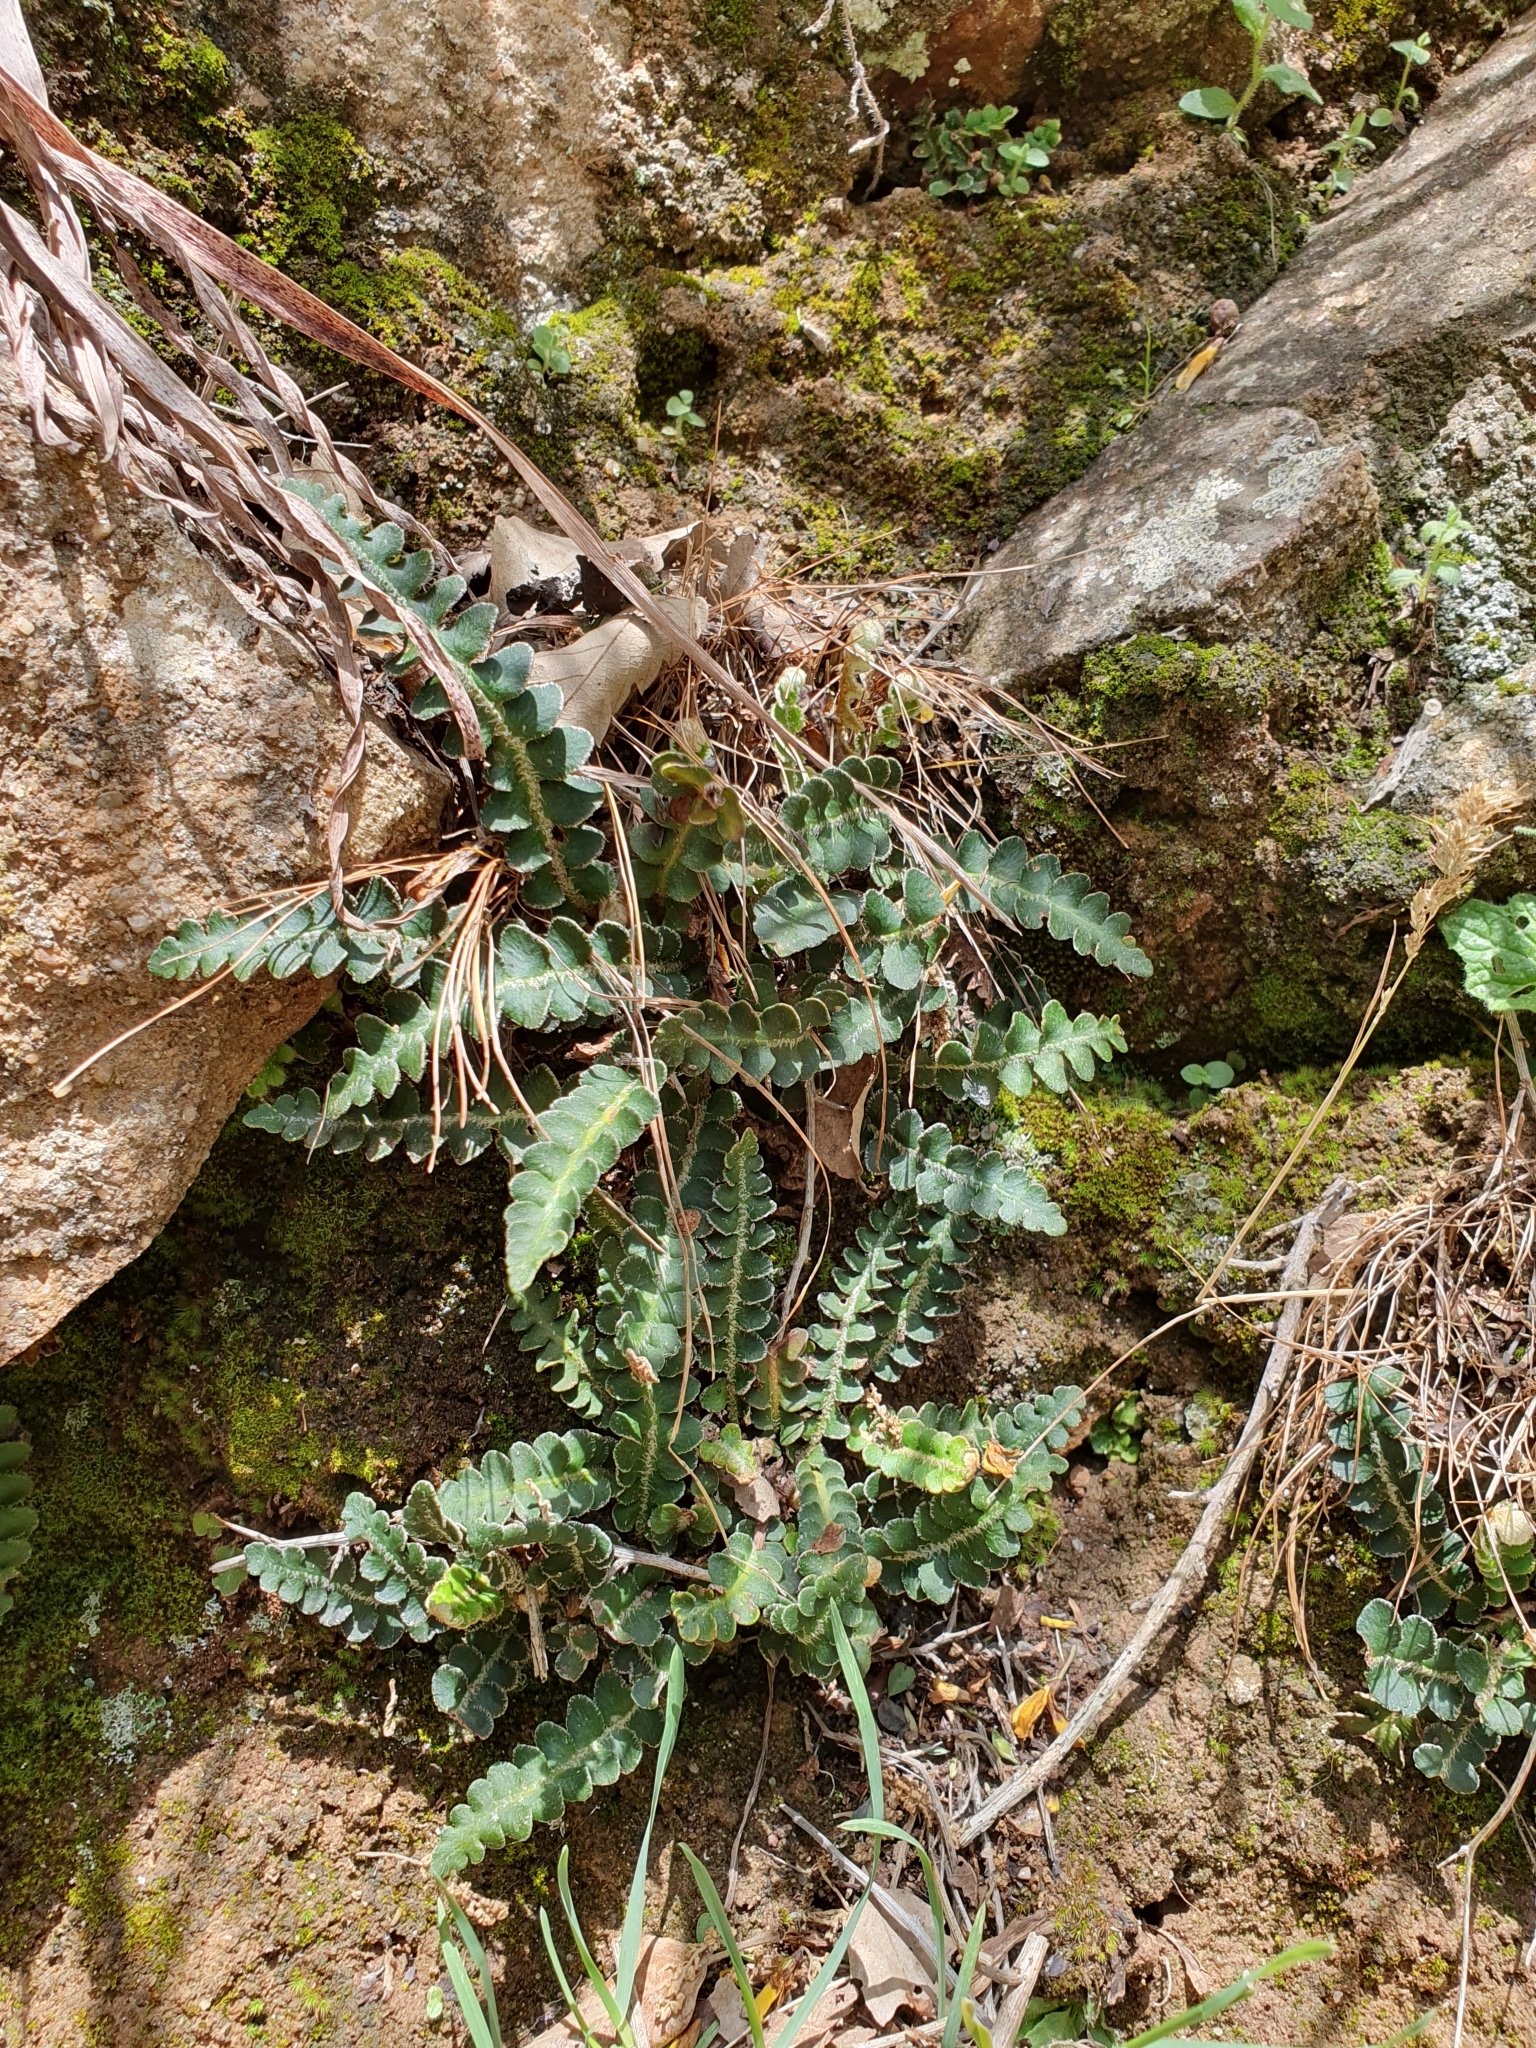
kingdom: Plantae
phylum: Tracheophyta
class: Polypodiopsida
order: Polypodiales
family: Aspleniaceae
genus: Asplenium
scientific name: Asplenium ceterach
